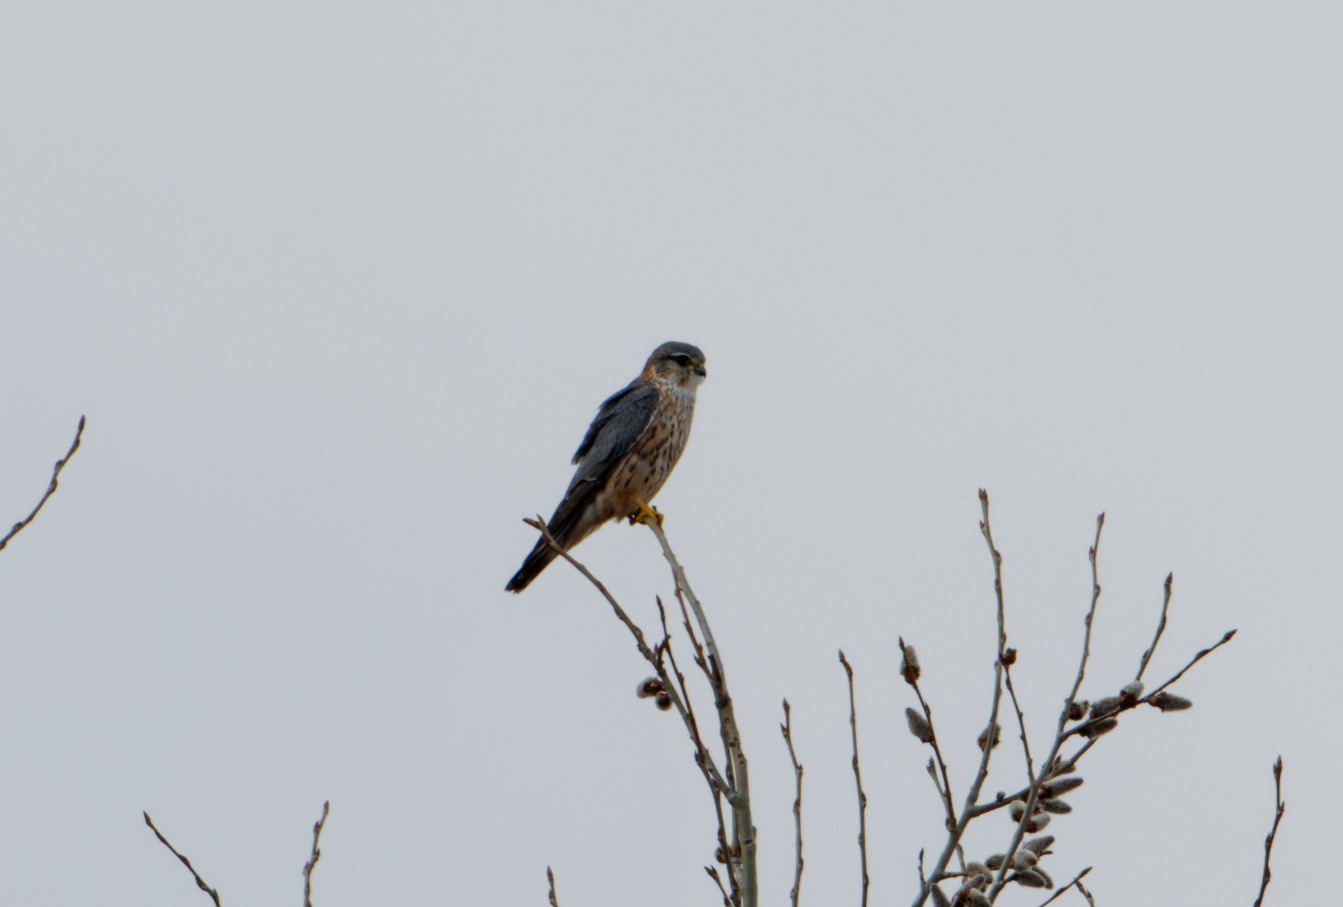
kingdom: Animalia
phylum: Chordata
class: Aves
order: Falconiformes
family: Falconidae
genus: Falco
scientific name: Falco columbarius
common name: Merlin
